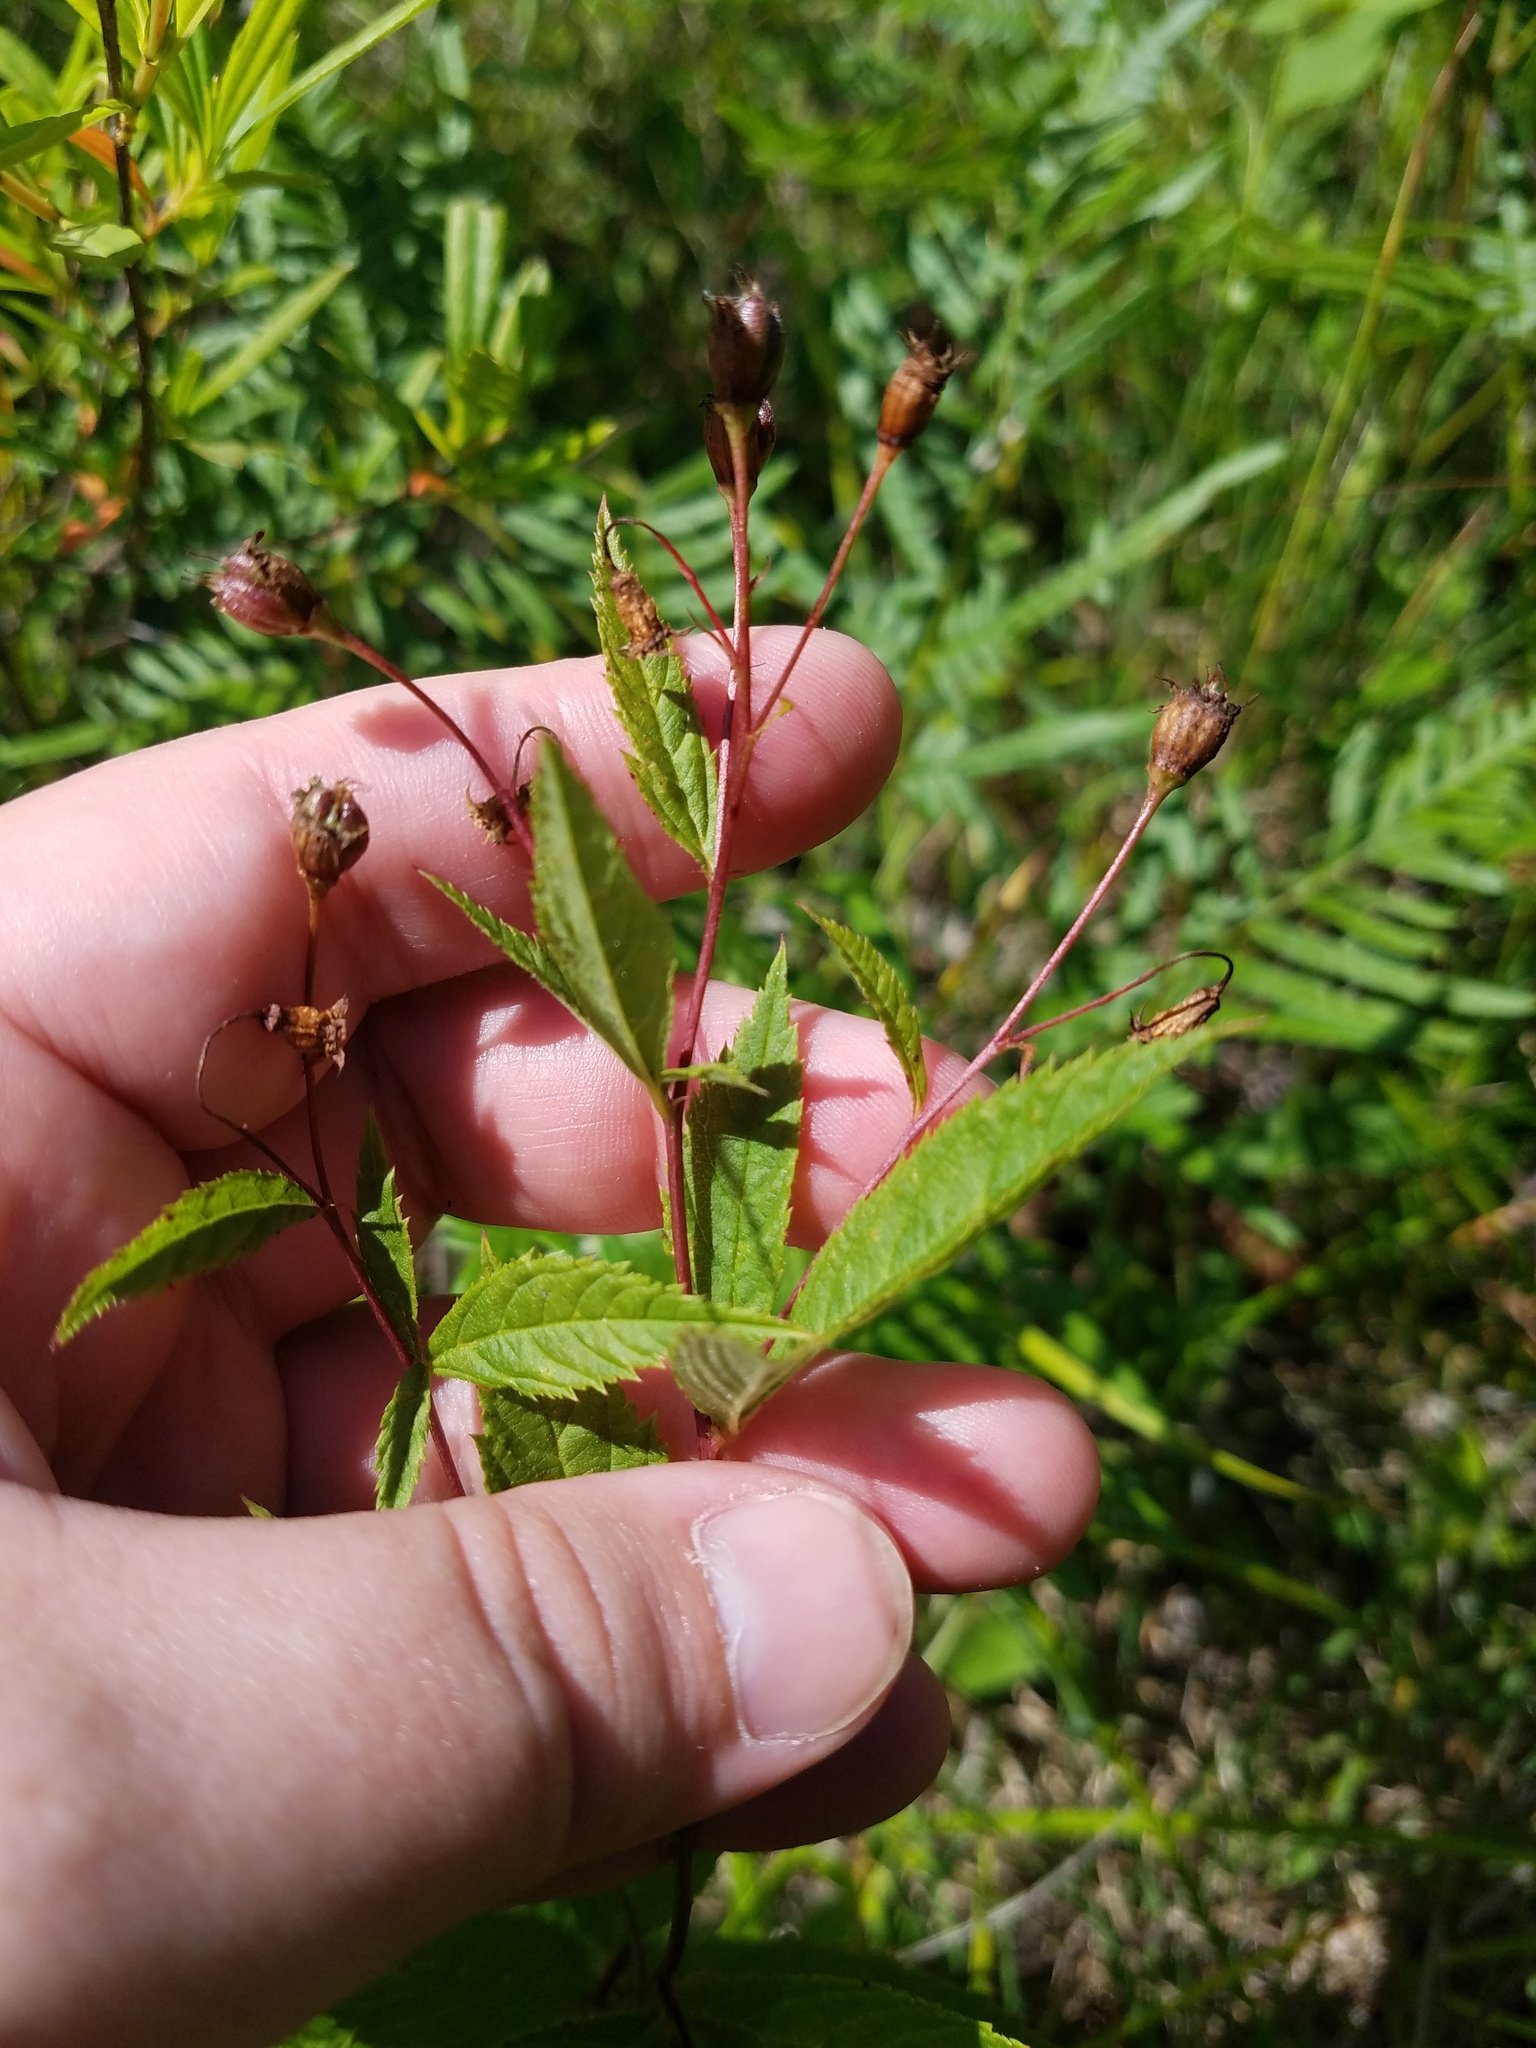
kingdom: Plantae
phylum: Tracheophyta
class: Magnoliopsida
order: Rosales
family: Rosaceae
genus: Gillenia
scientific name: Gillenia trifoliata
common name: Bowman's-root
